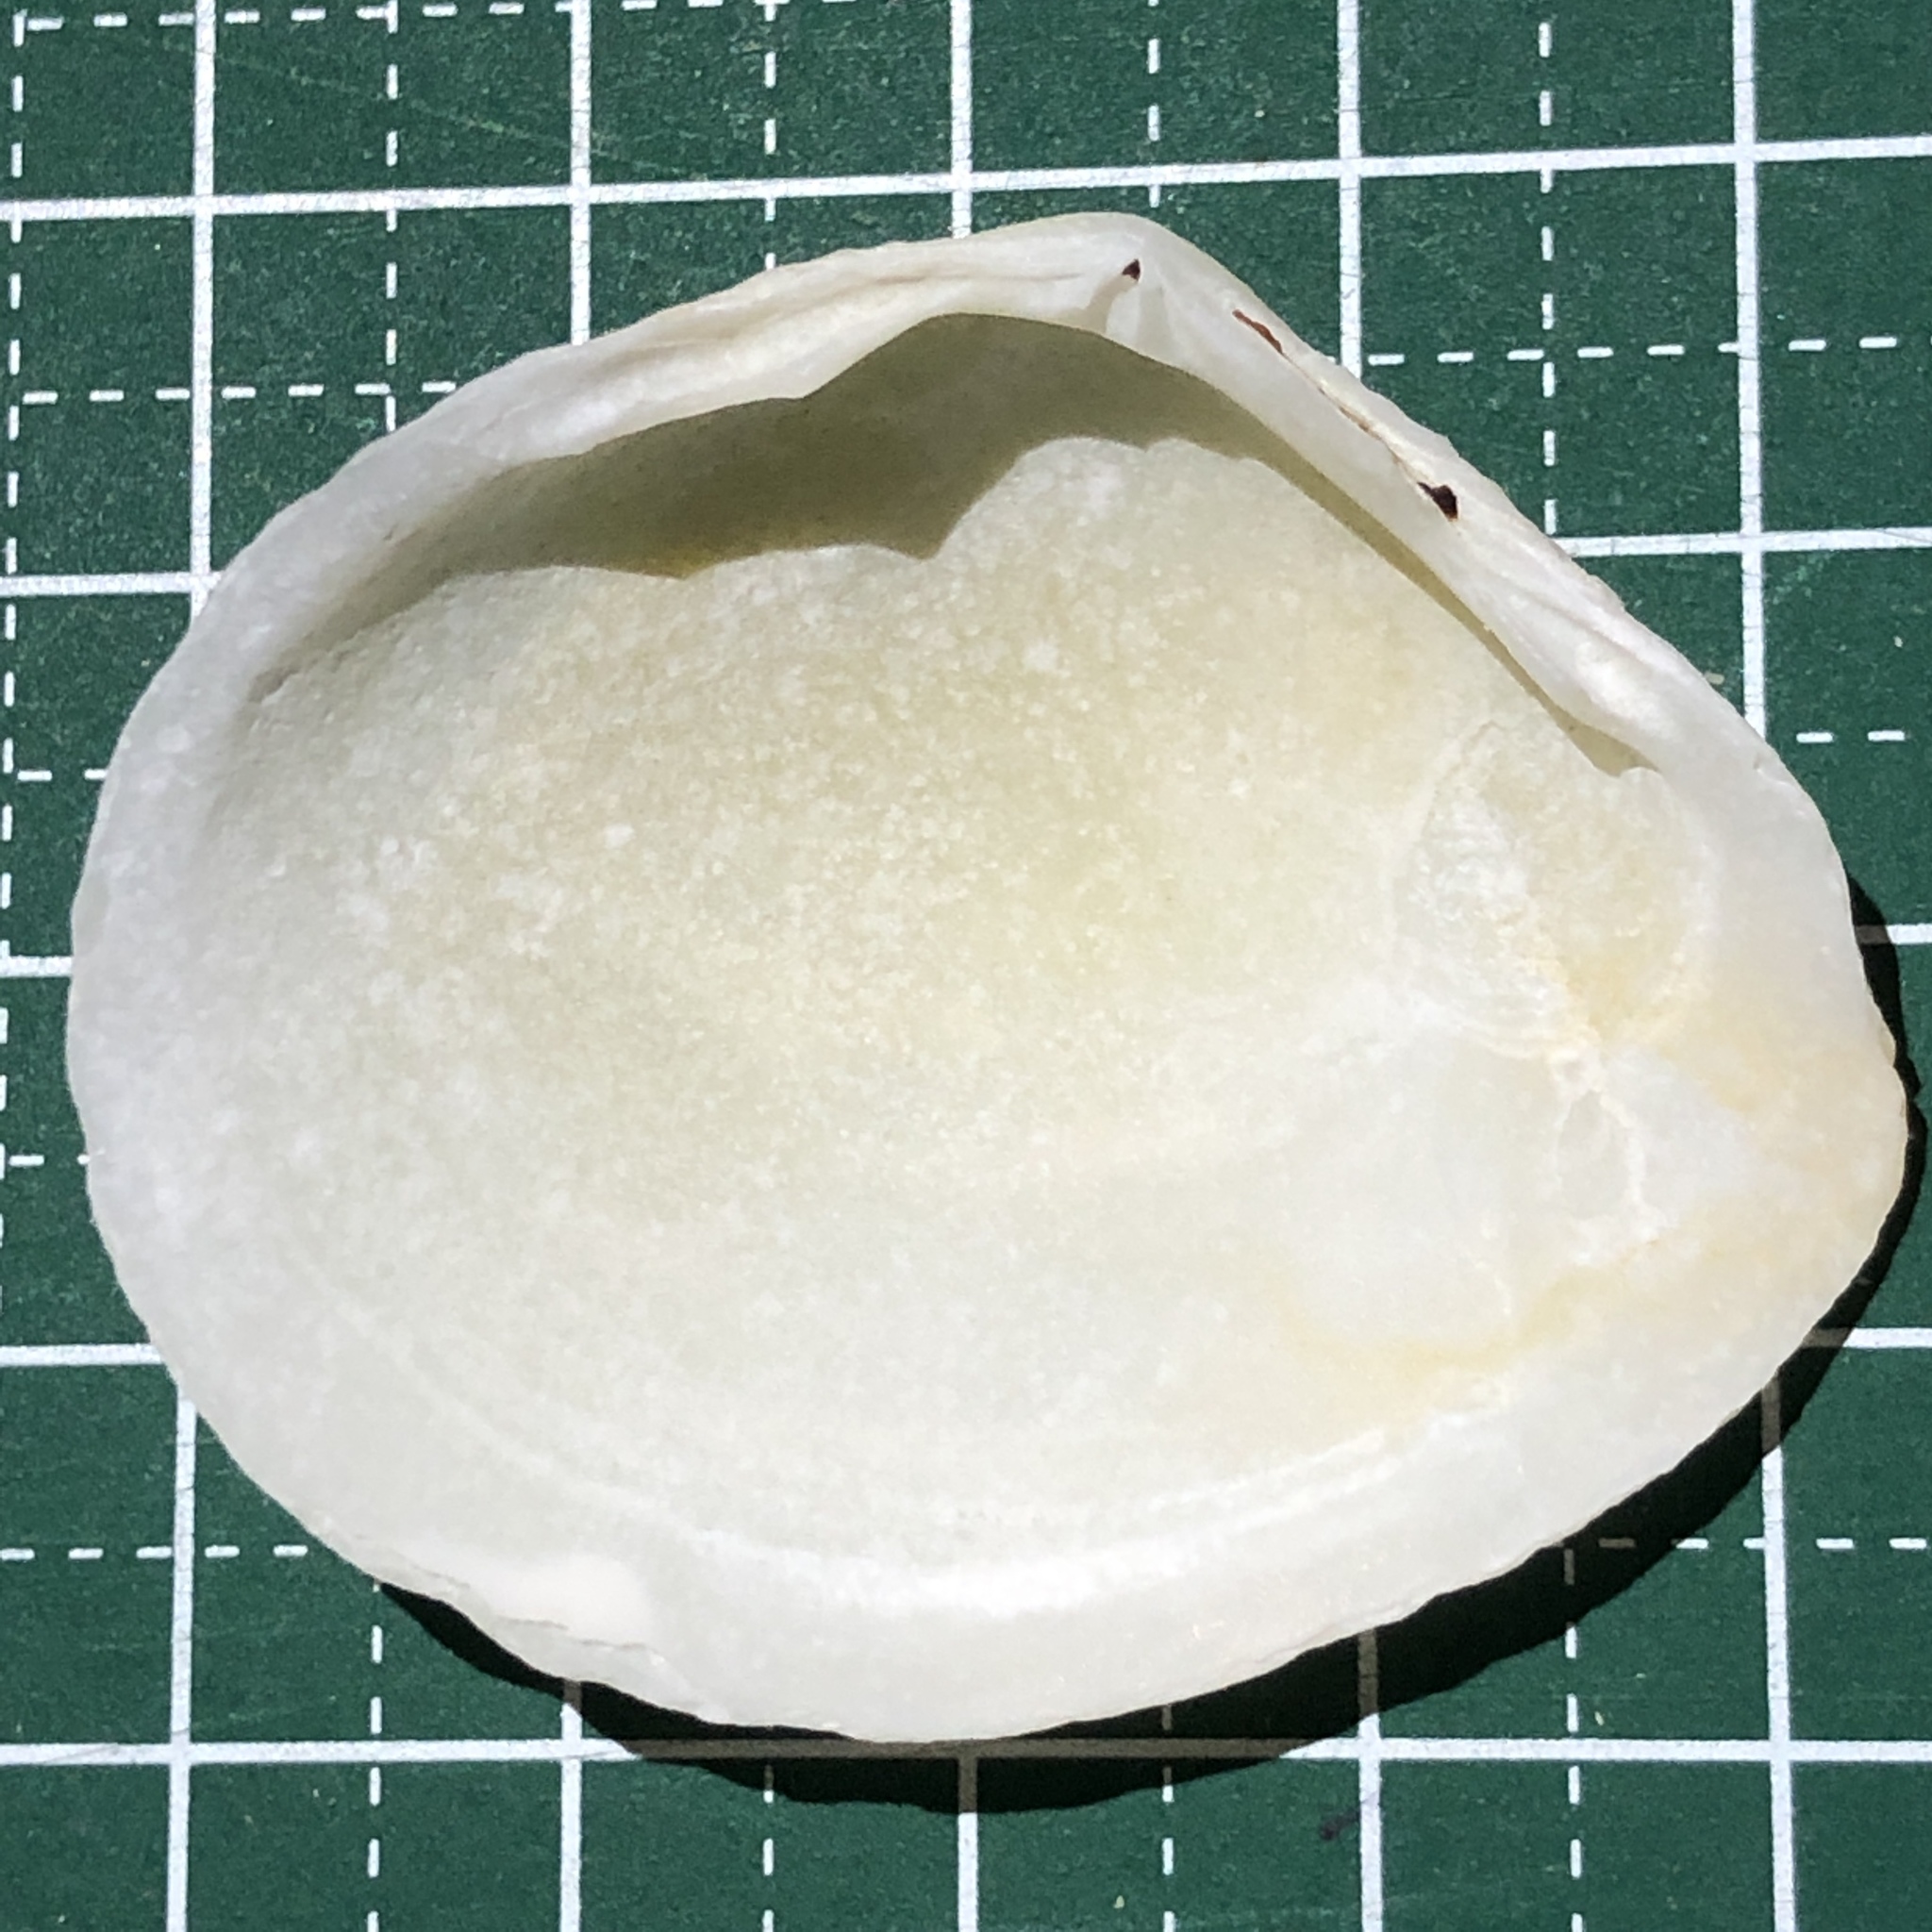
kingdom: Animalia
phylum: Mollusca
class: Bivalvia
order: Cardiida
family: Tellinidae
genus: Quidnipagus
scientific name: Quidnipagus palatam
